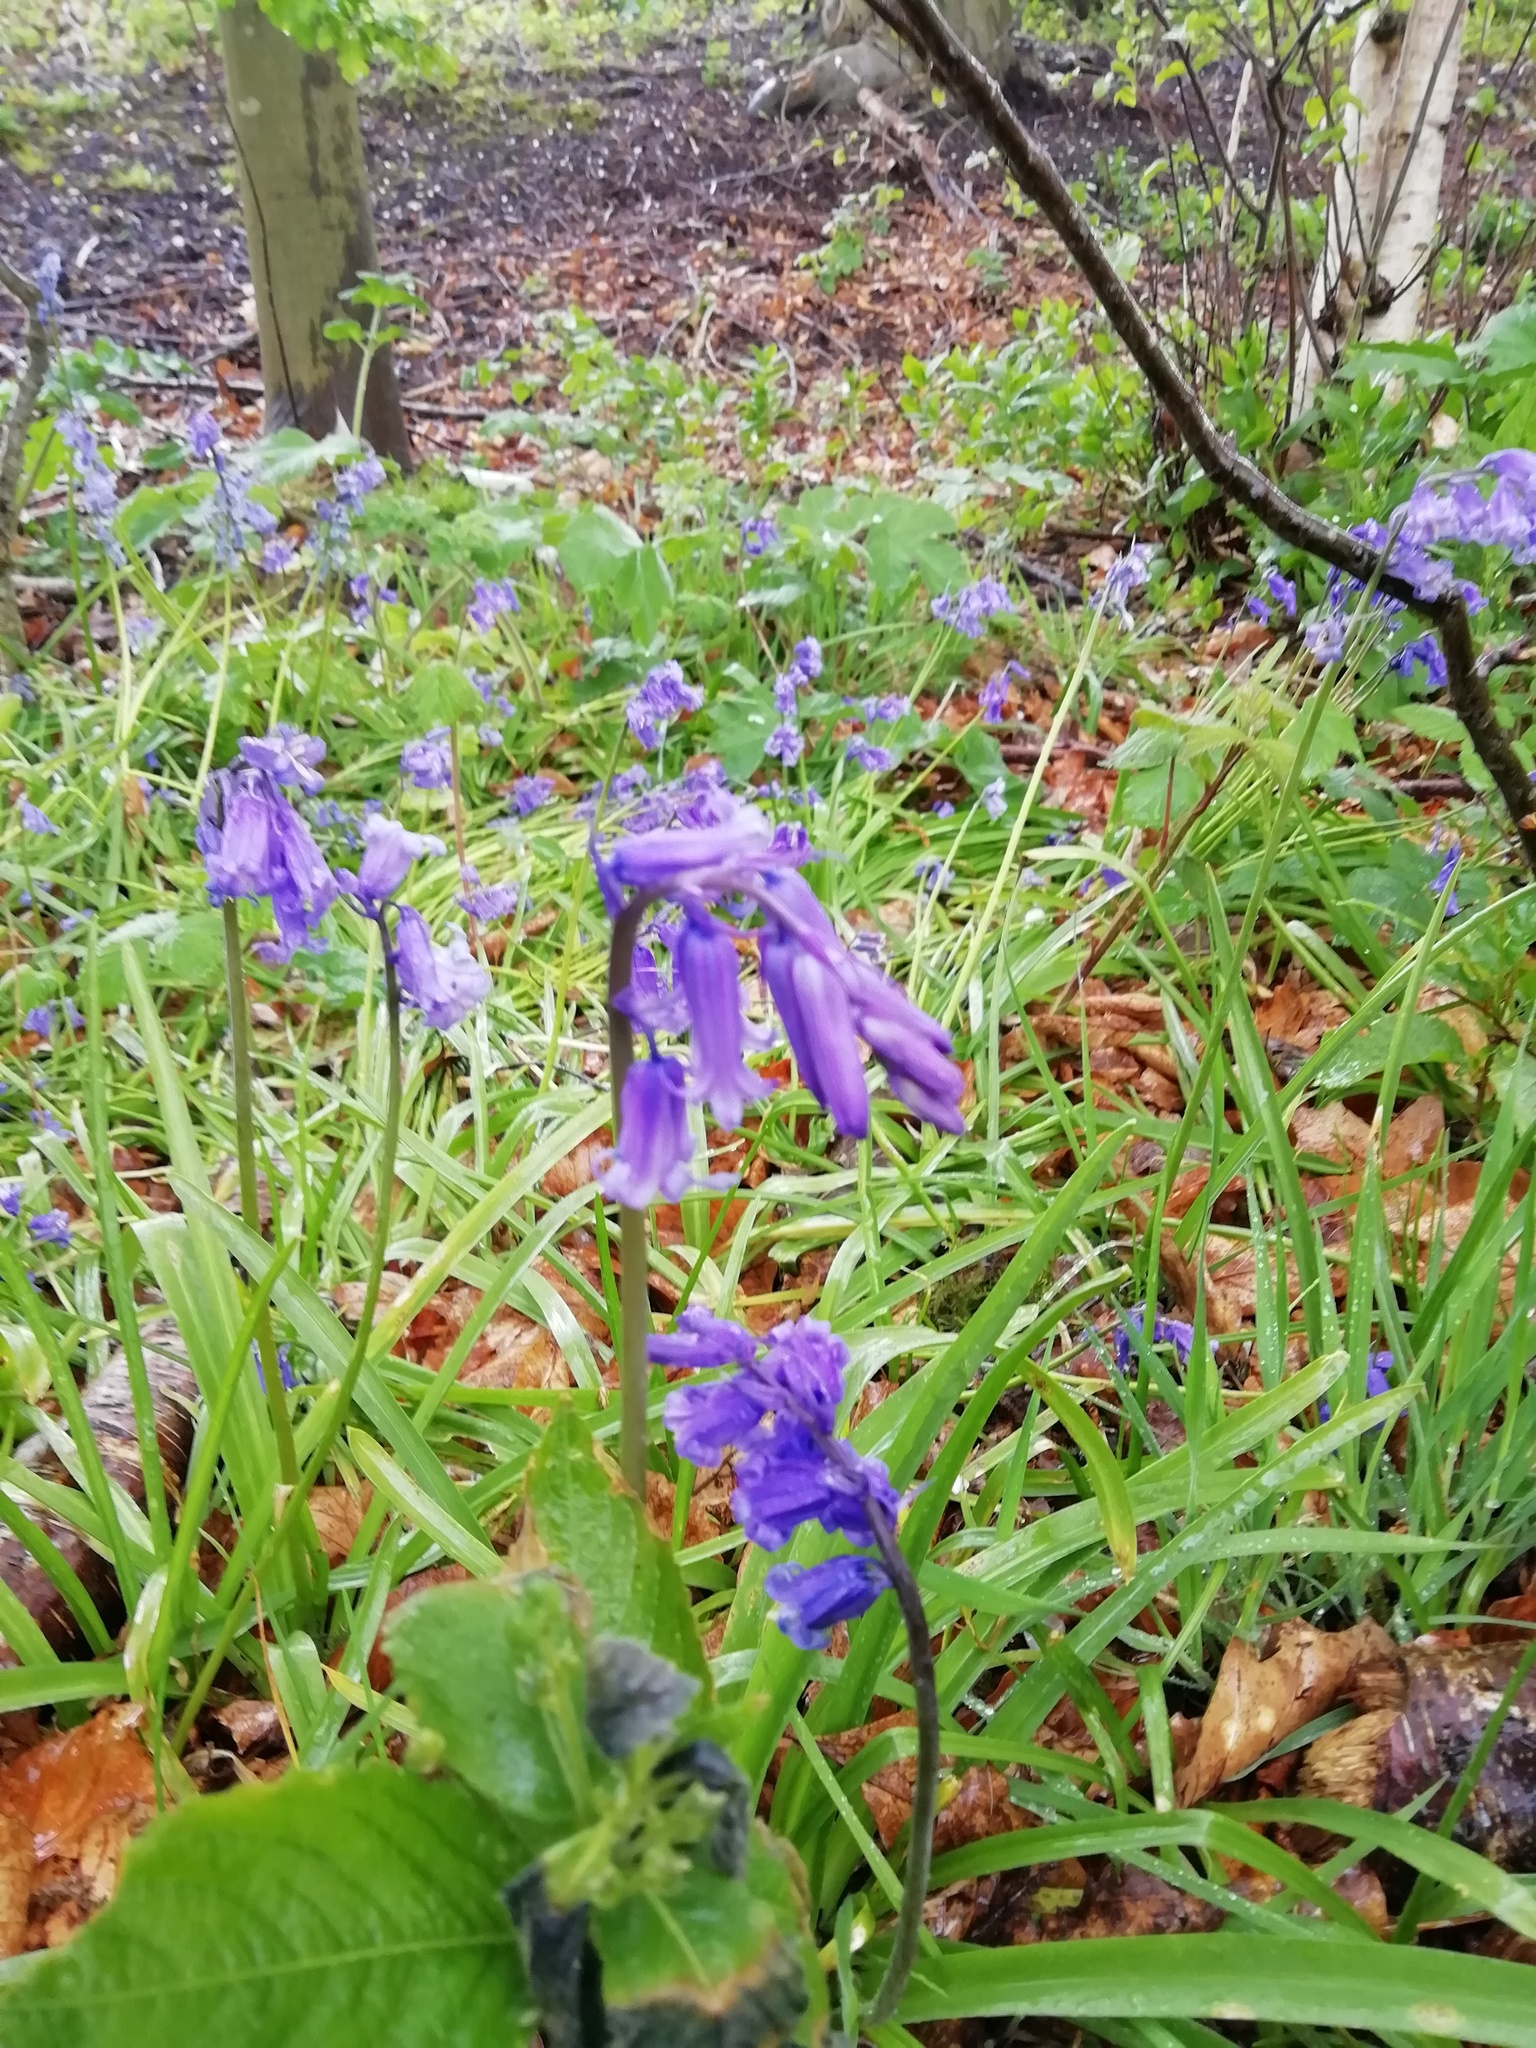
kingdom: Plantae
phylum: Tracheophyta
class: Liliopsida
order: Asparagales
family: Asparagaceae
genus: Hyacinthoides
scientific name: Hyacinthoides non-scripta
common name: Bluebell
